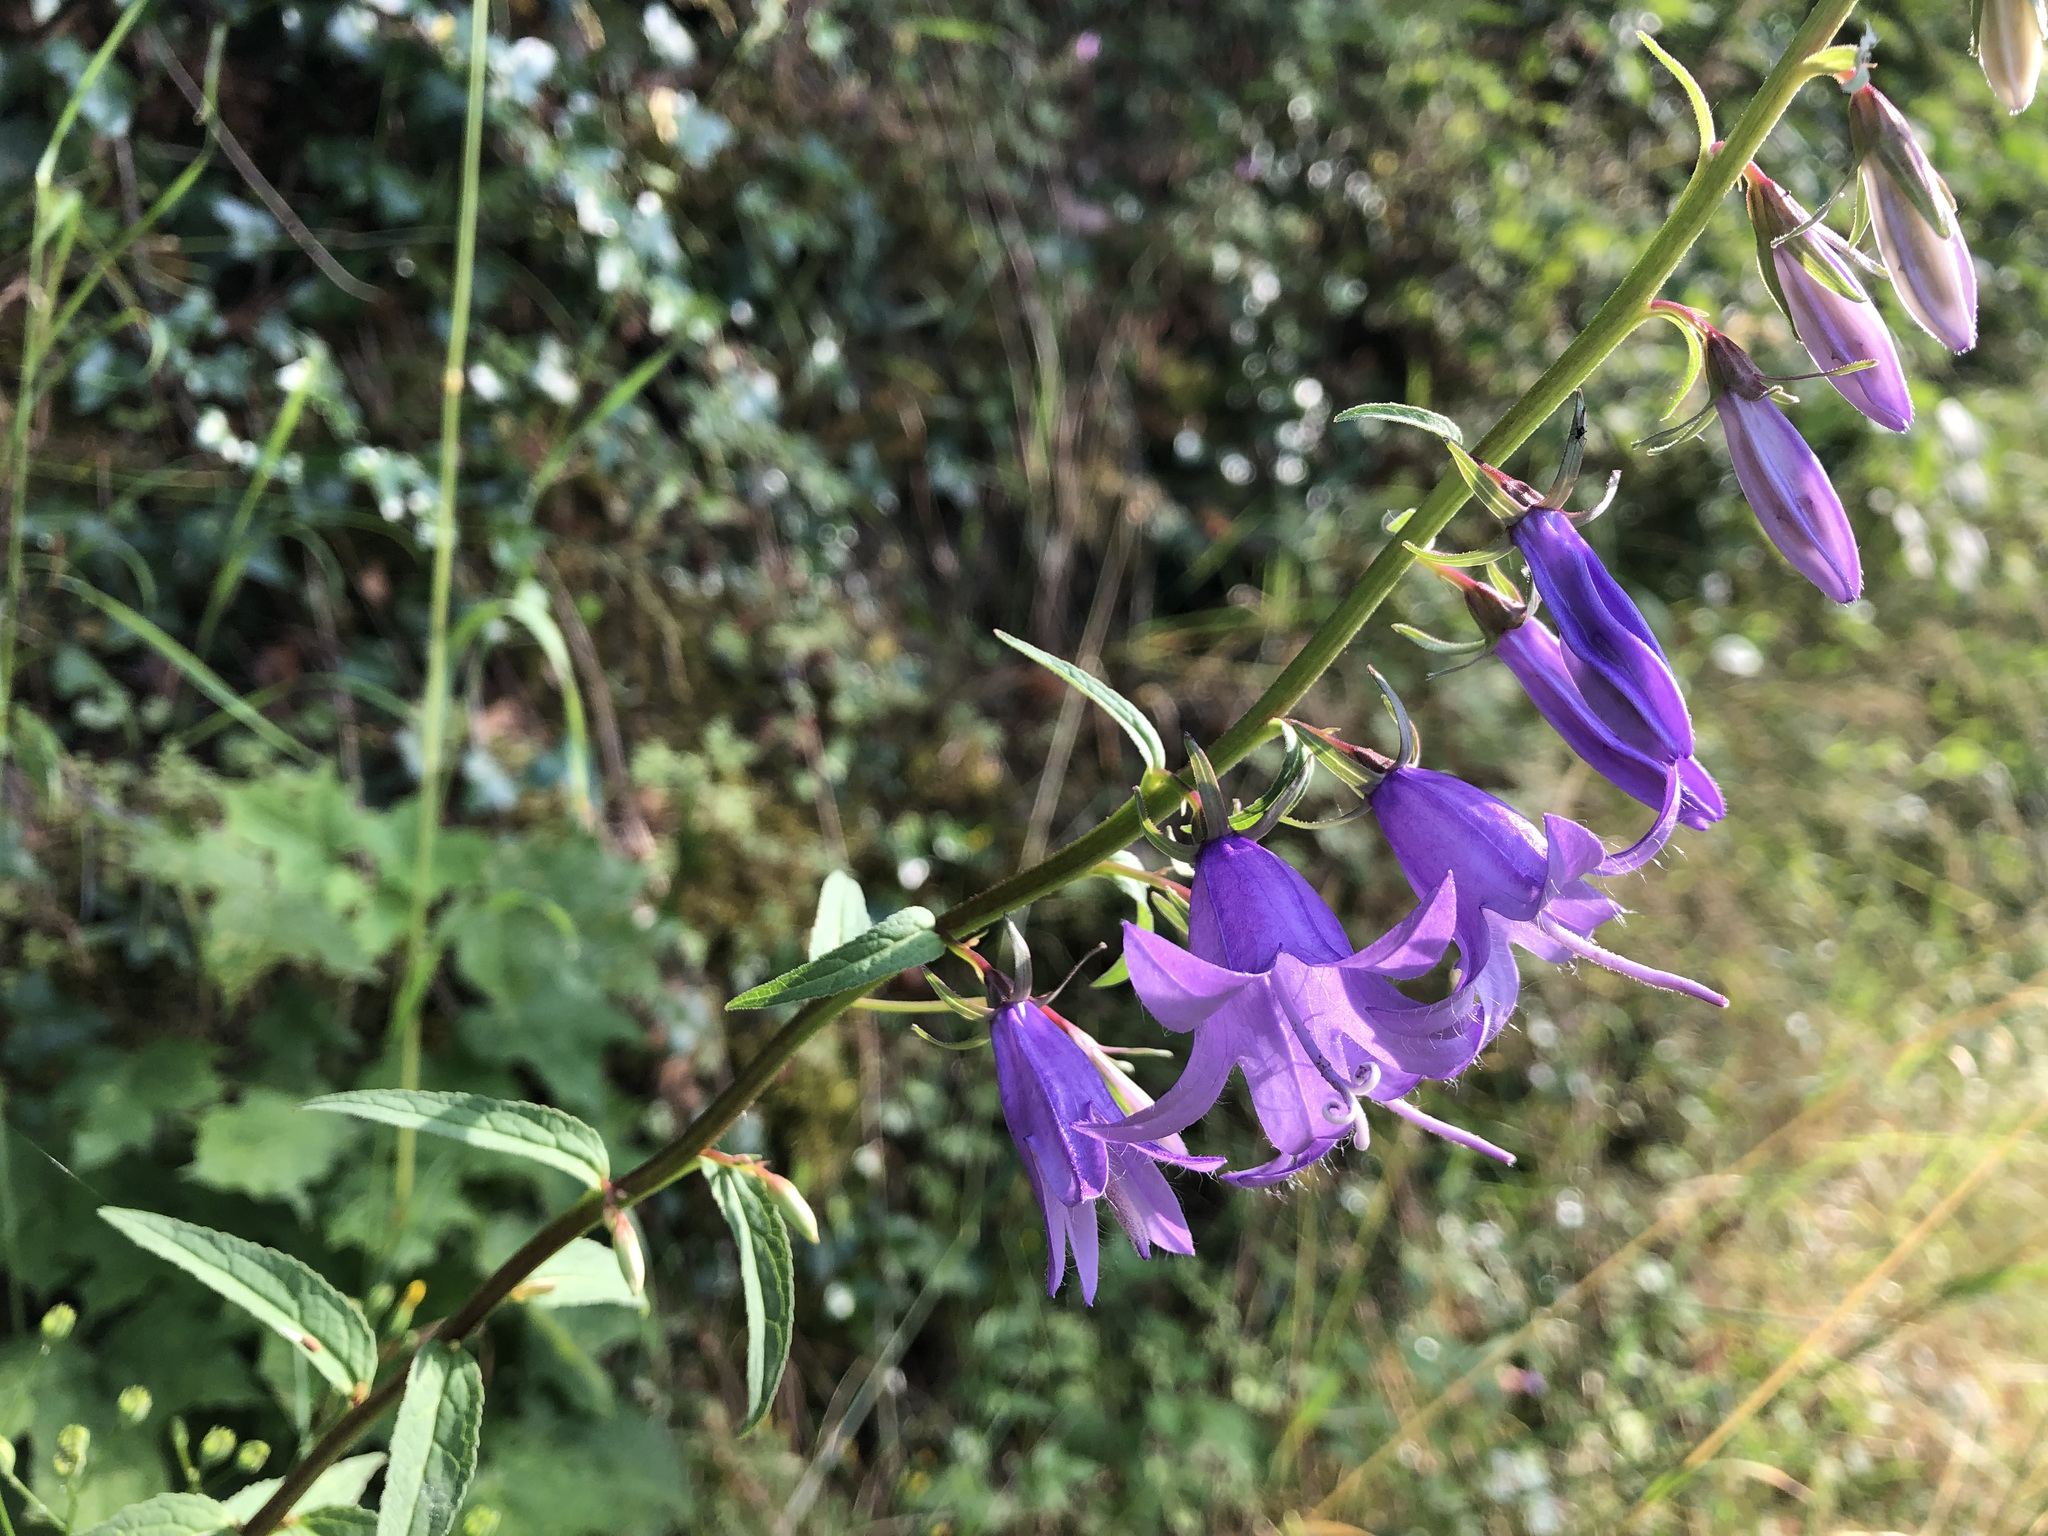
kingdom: Plantae
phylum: Tracheophyta
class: Magnoliopsida
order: Asterales
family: Campanulaceae
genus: Campanula
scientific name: Campanula rapunculoides
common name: Creeping bellflower
